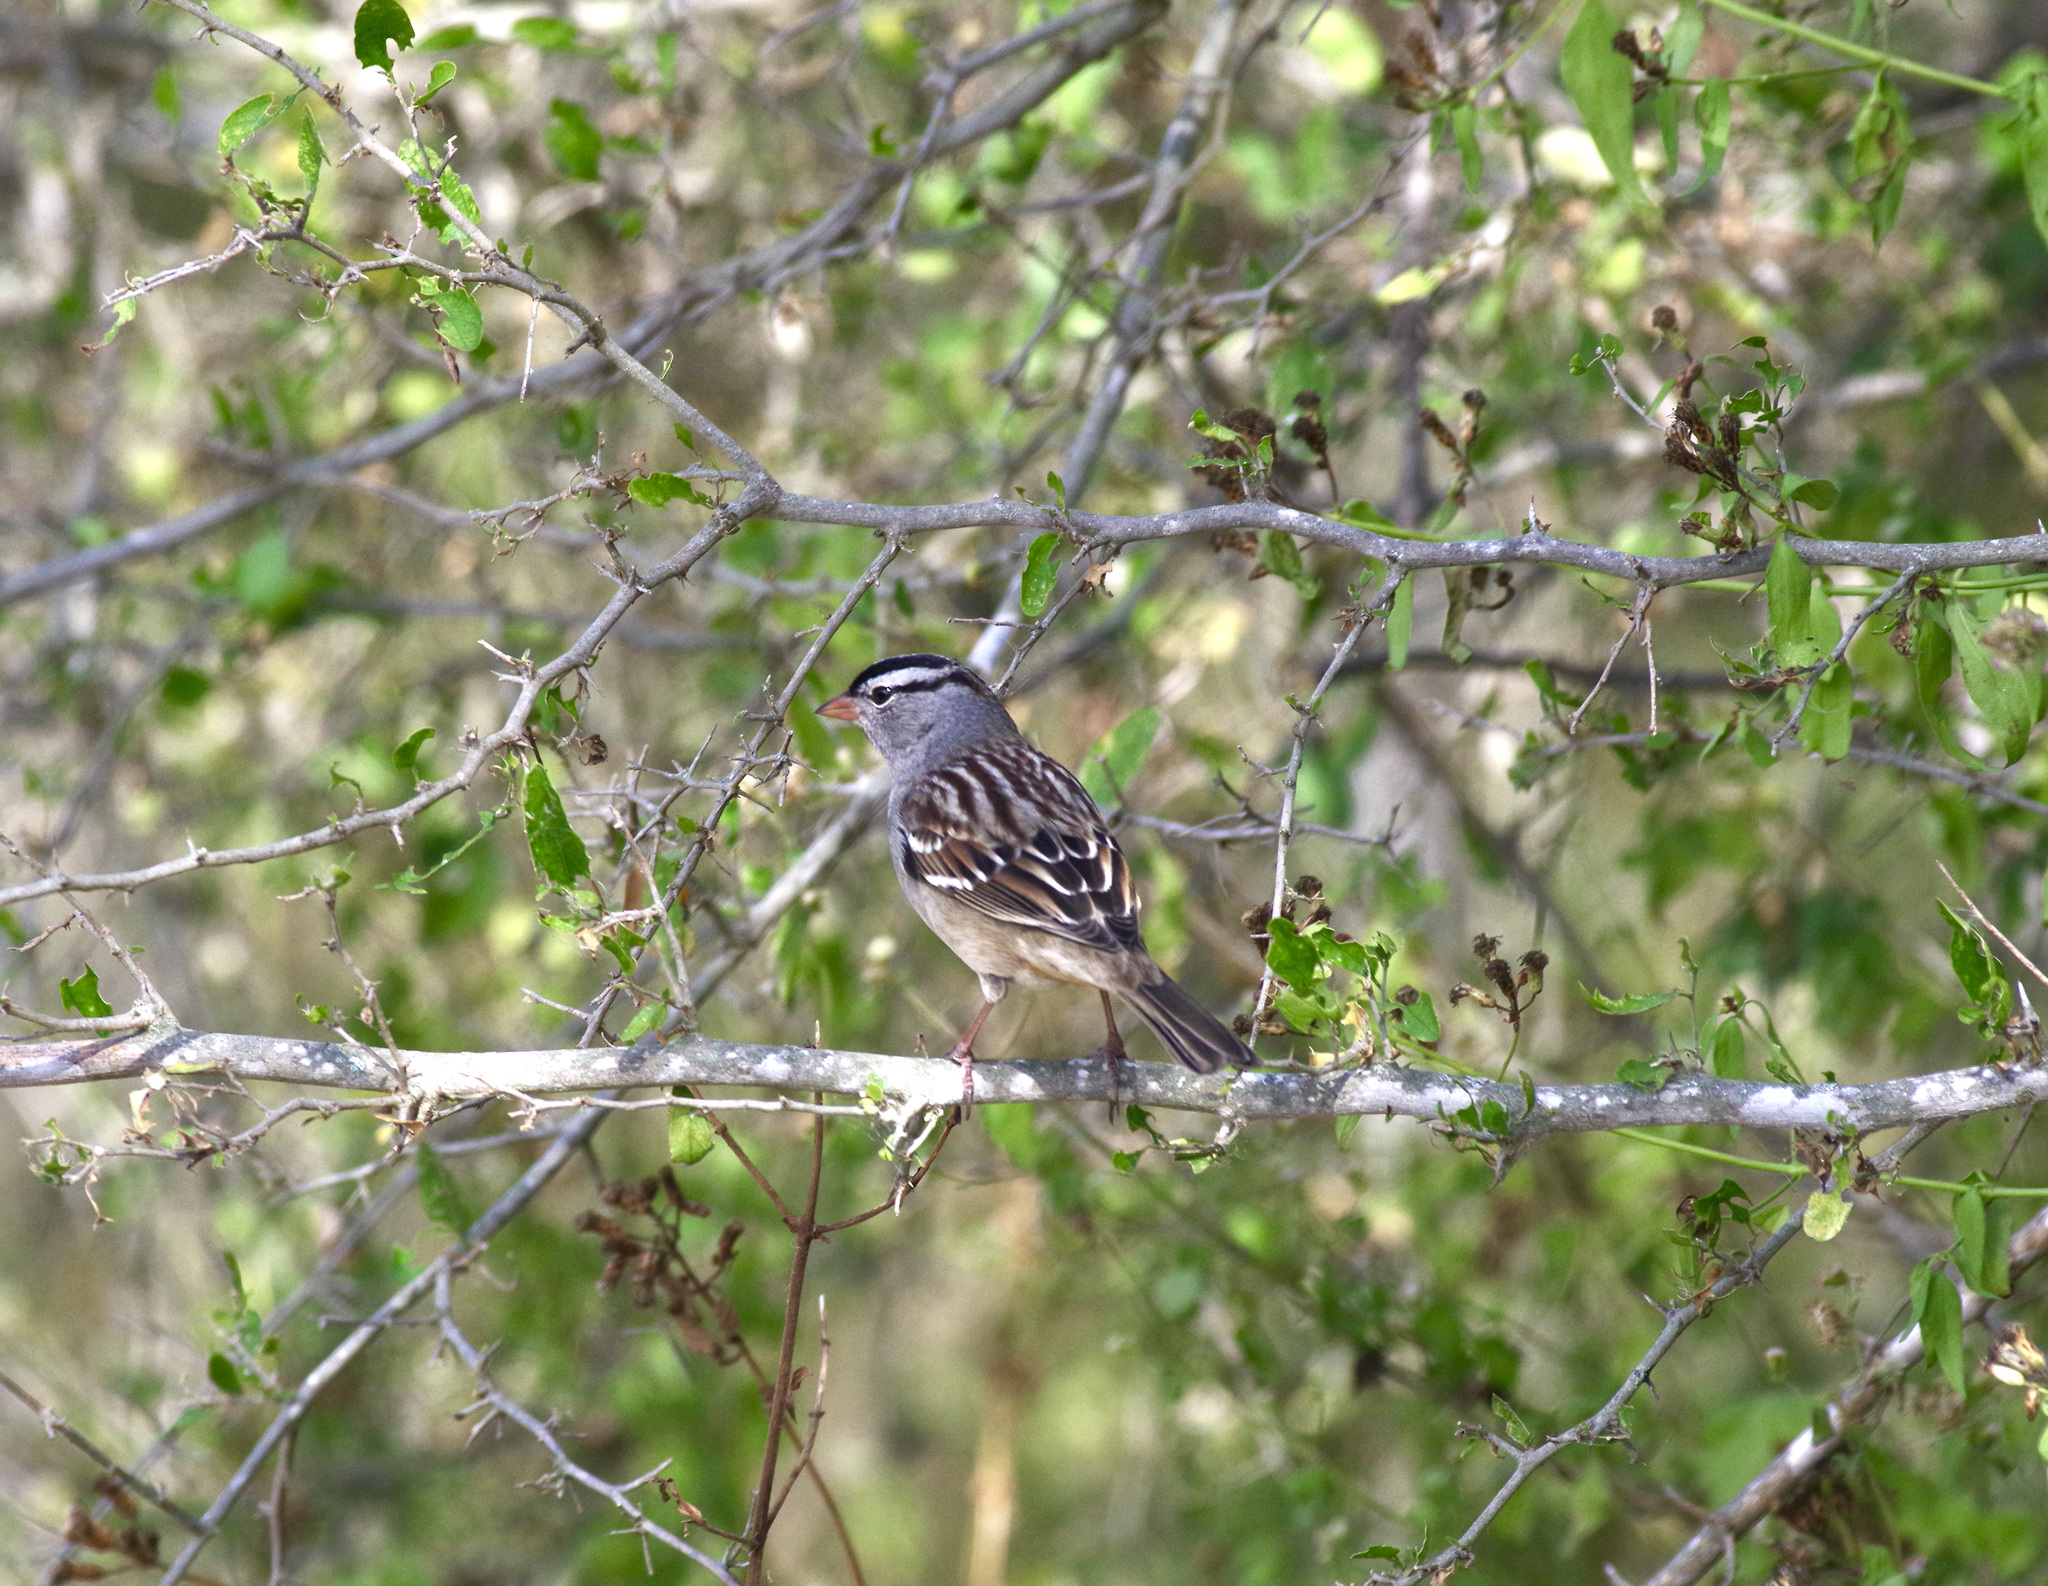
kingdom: Animalia
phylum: Chordata
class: Aves
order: Passeriformes
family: Passerellidae
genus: Zonotrichia
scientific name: Zonotrichia leucophrys
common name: White-crowned sparrow
